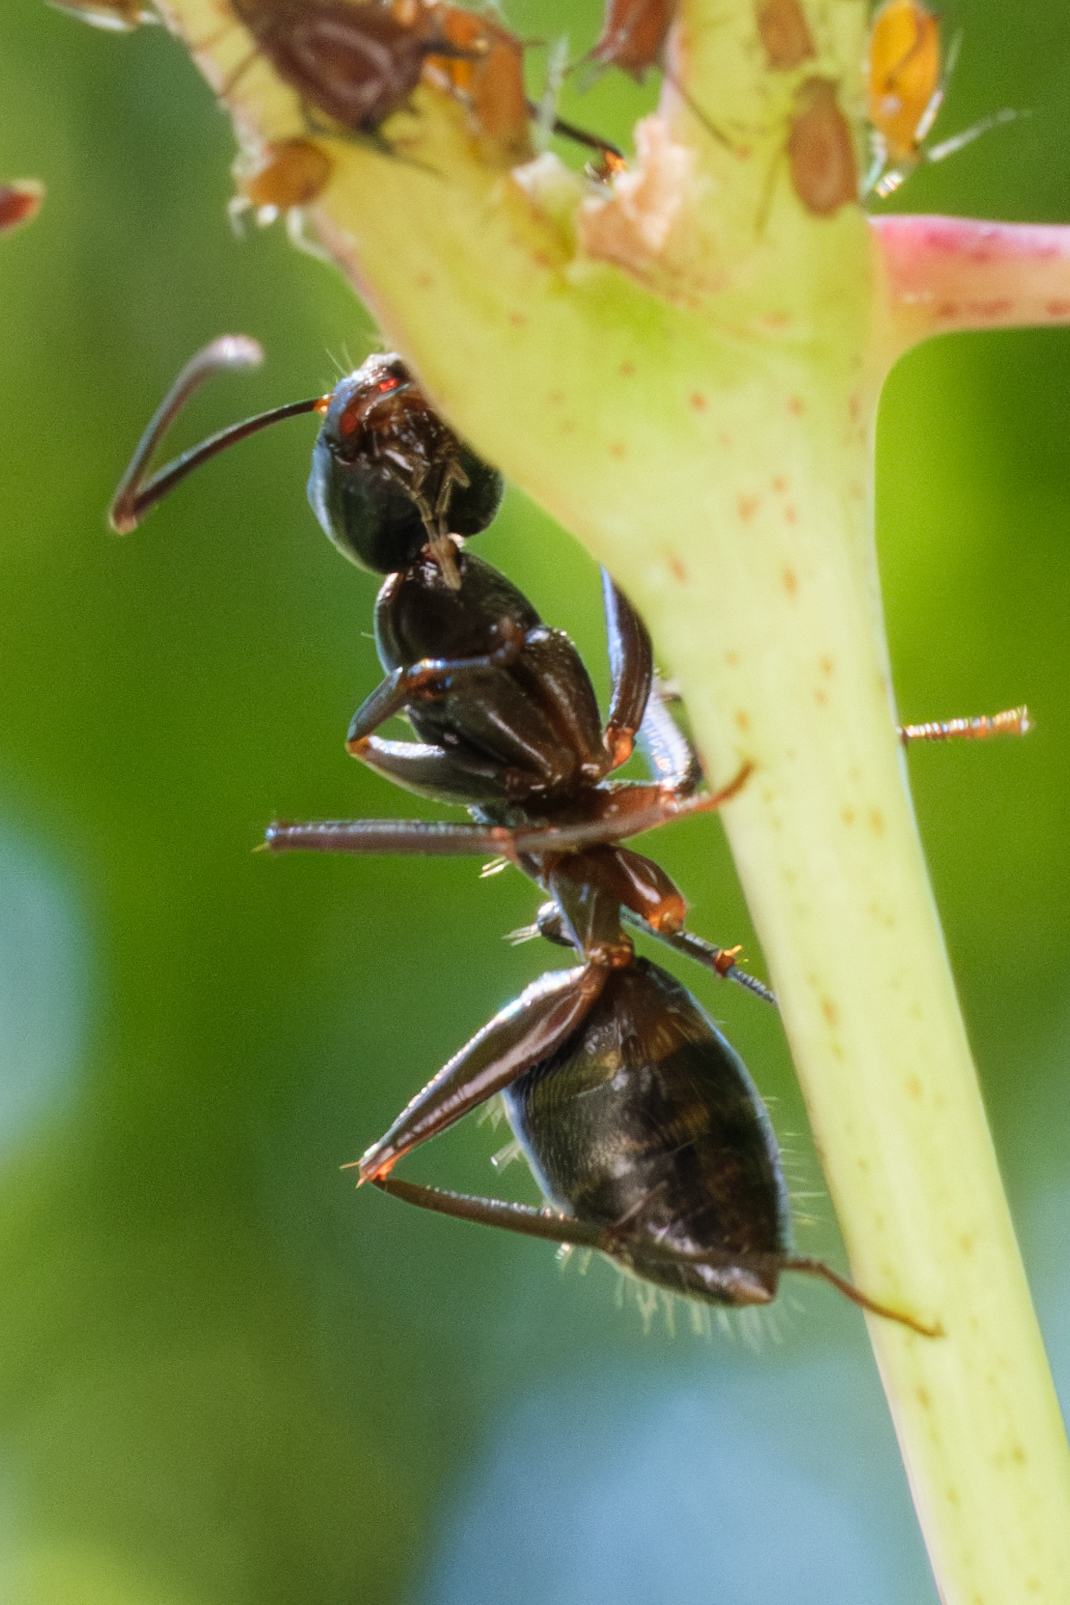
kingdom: Animalia
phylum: Arthropoda
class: Insecta
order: Hymenoptera
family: Formicidae
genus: Camponotus
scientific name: Camponotus chromaiodes
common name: Red carpenter ant
